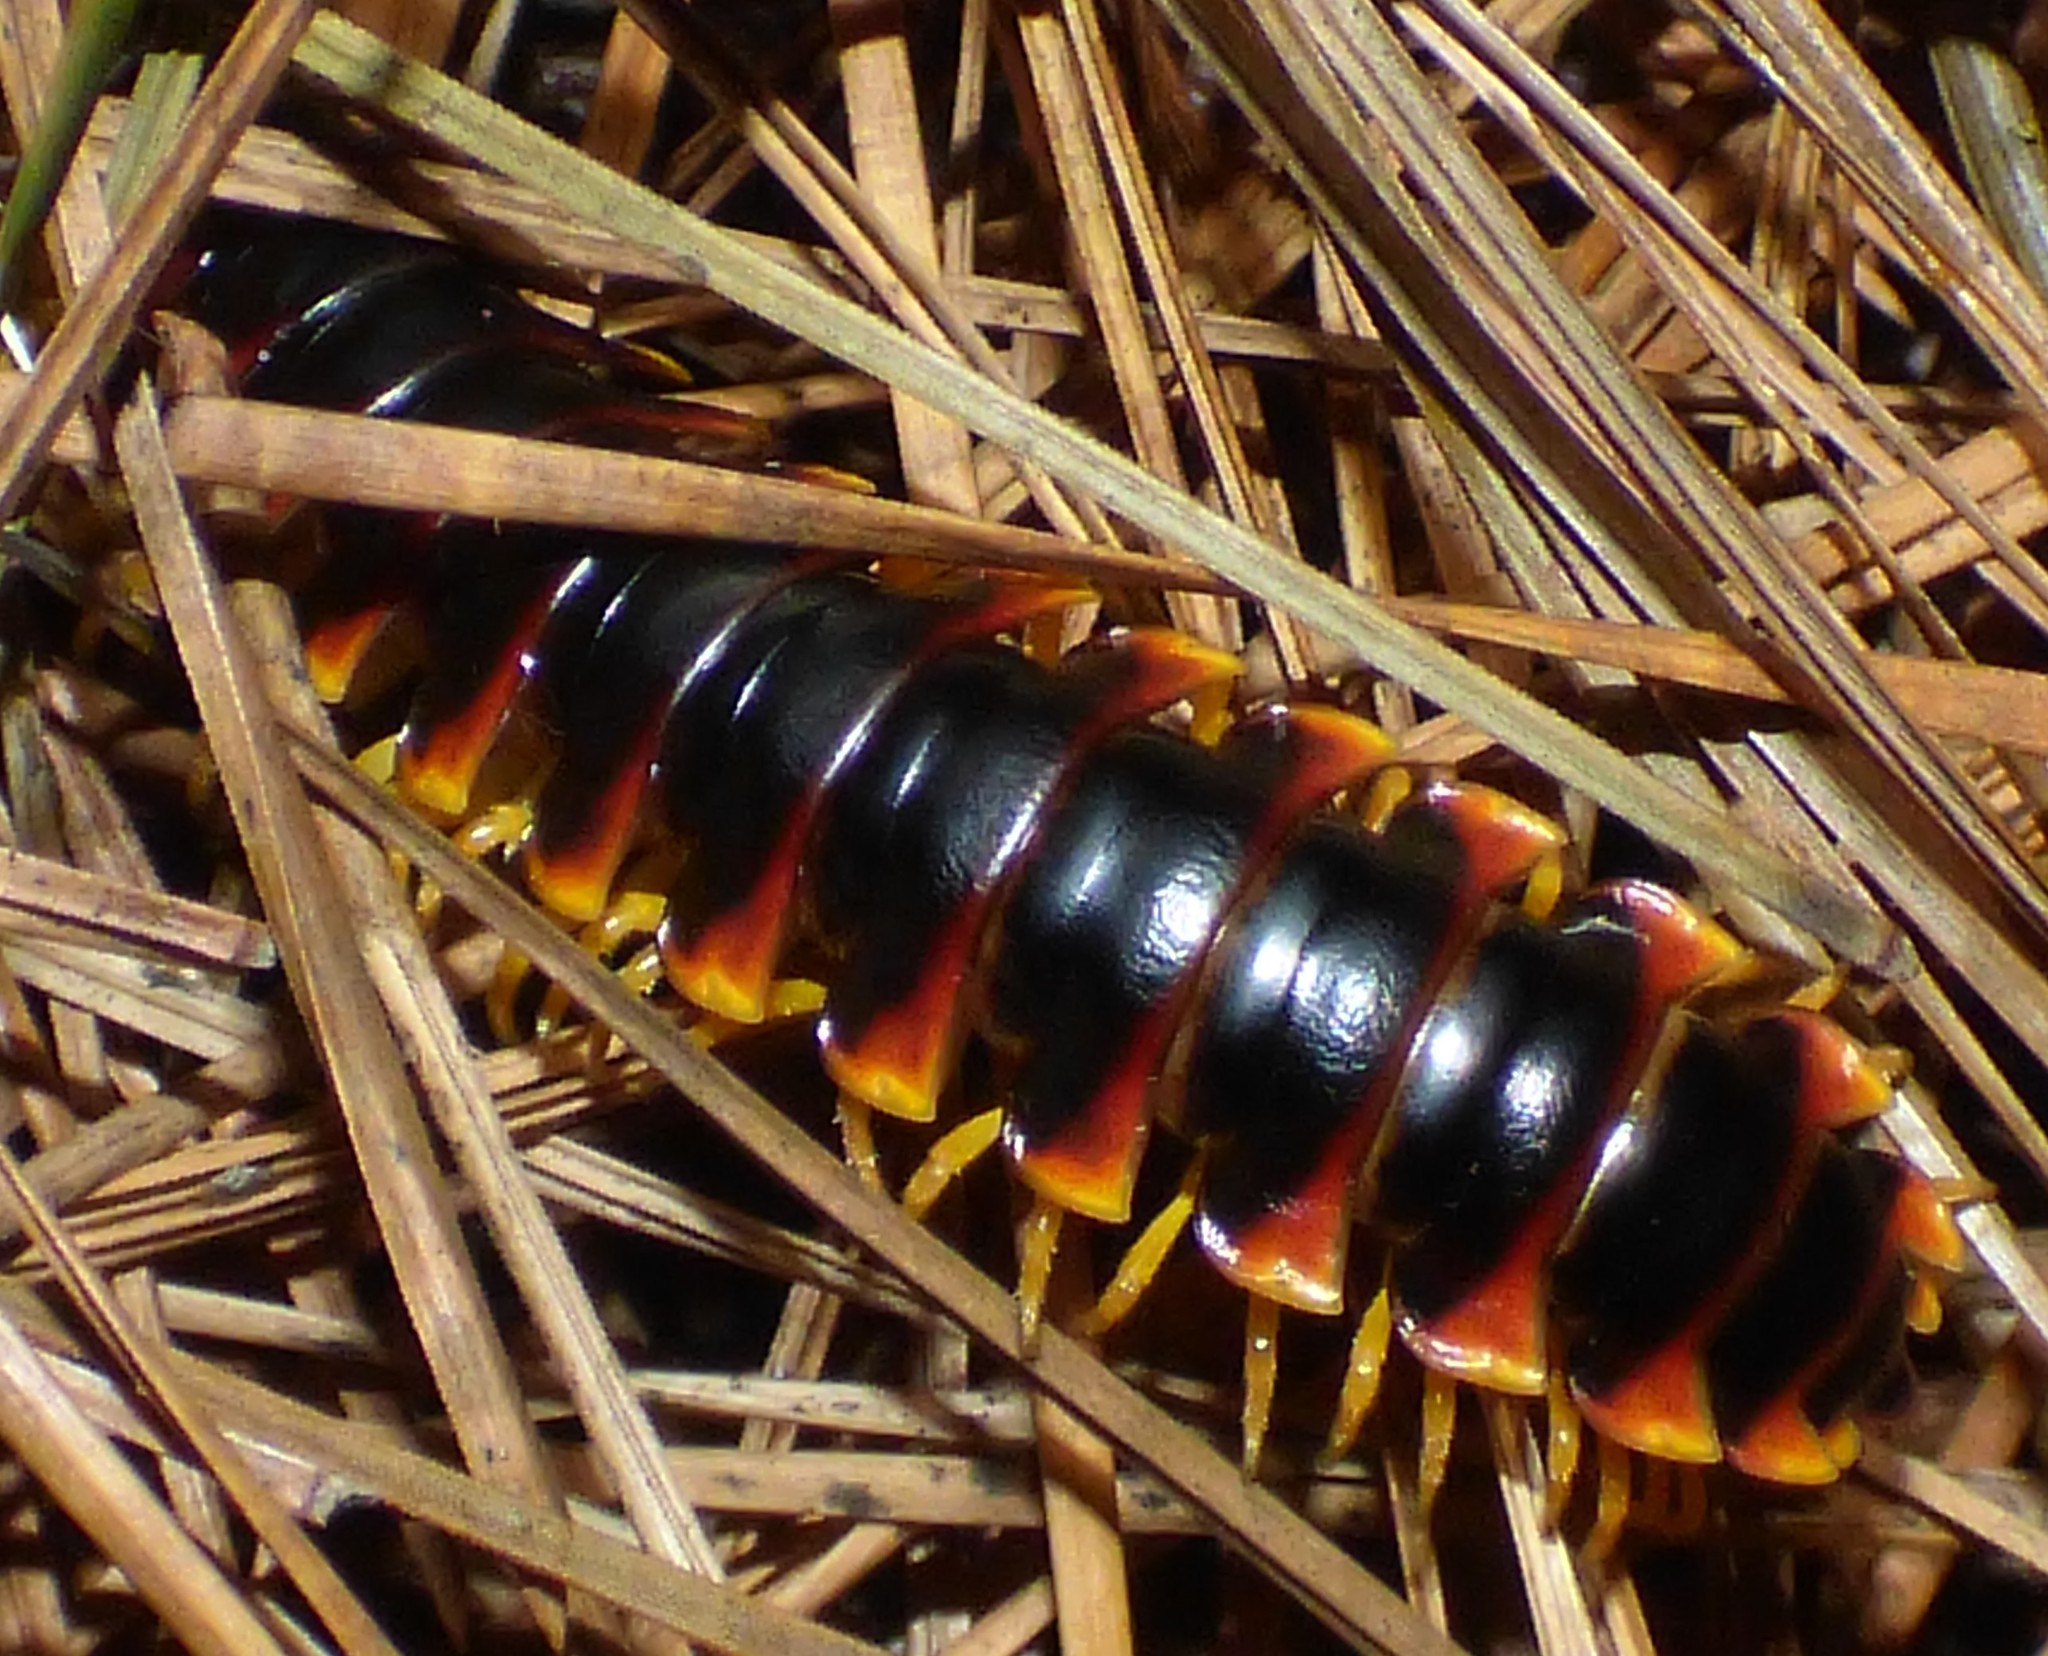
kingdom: Animalia
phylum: Arthropoda
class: Diplopoda
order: Polydesmida
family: Xystodesmidae
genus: Apheloria
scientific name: Apheloria virginiensis
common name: Black-and-gold flat millipede
